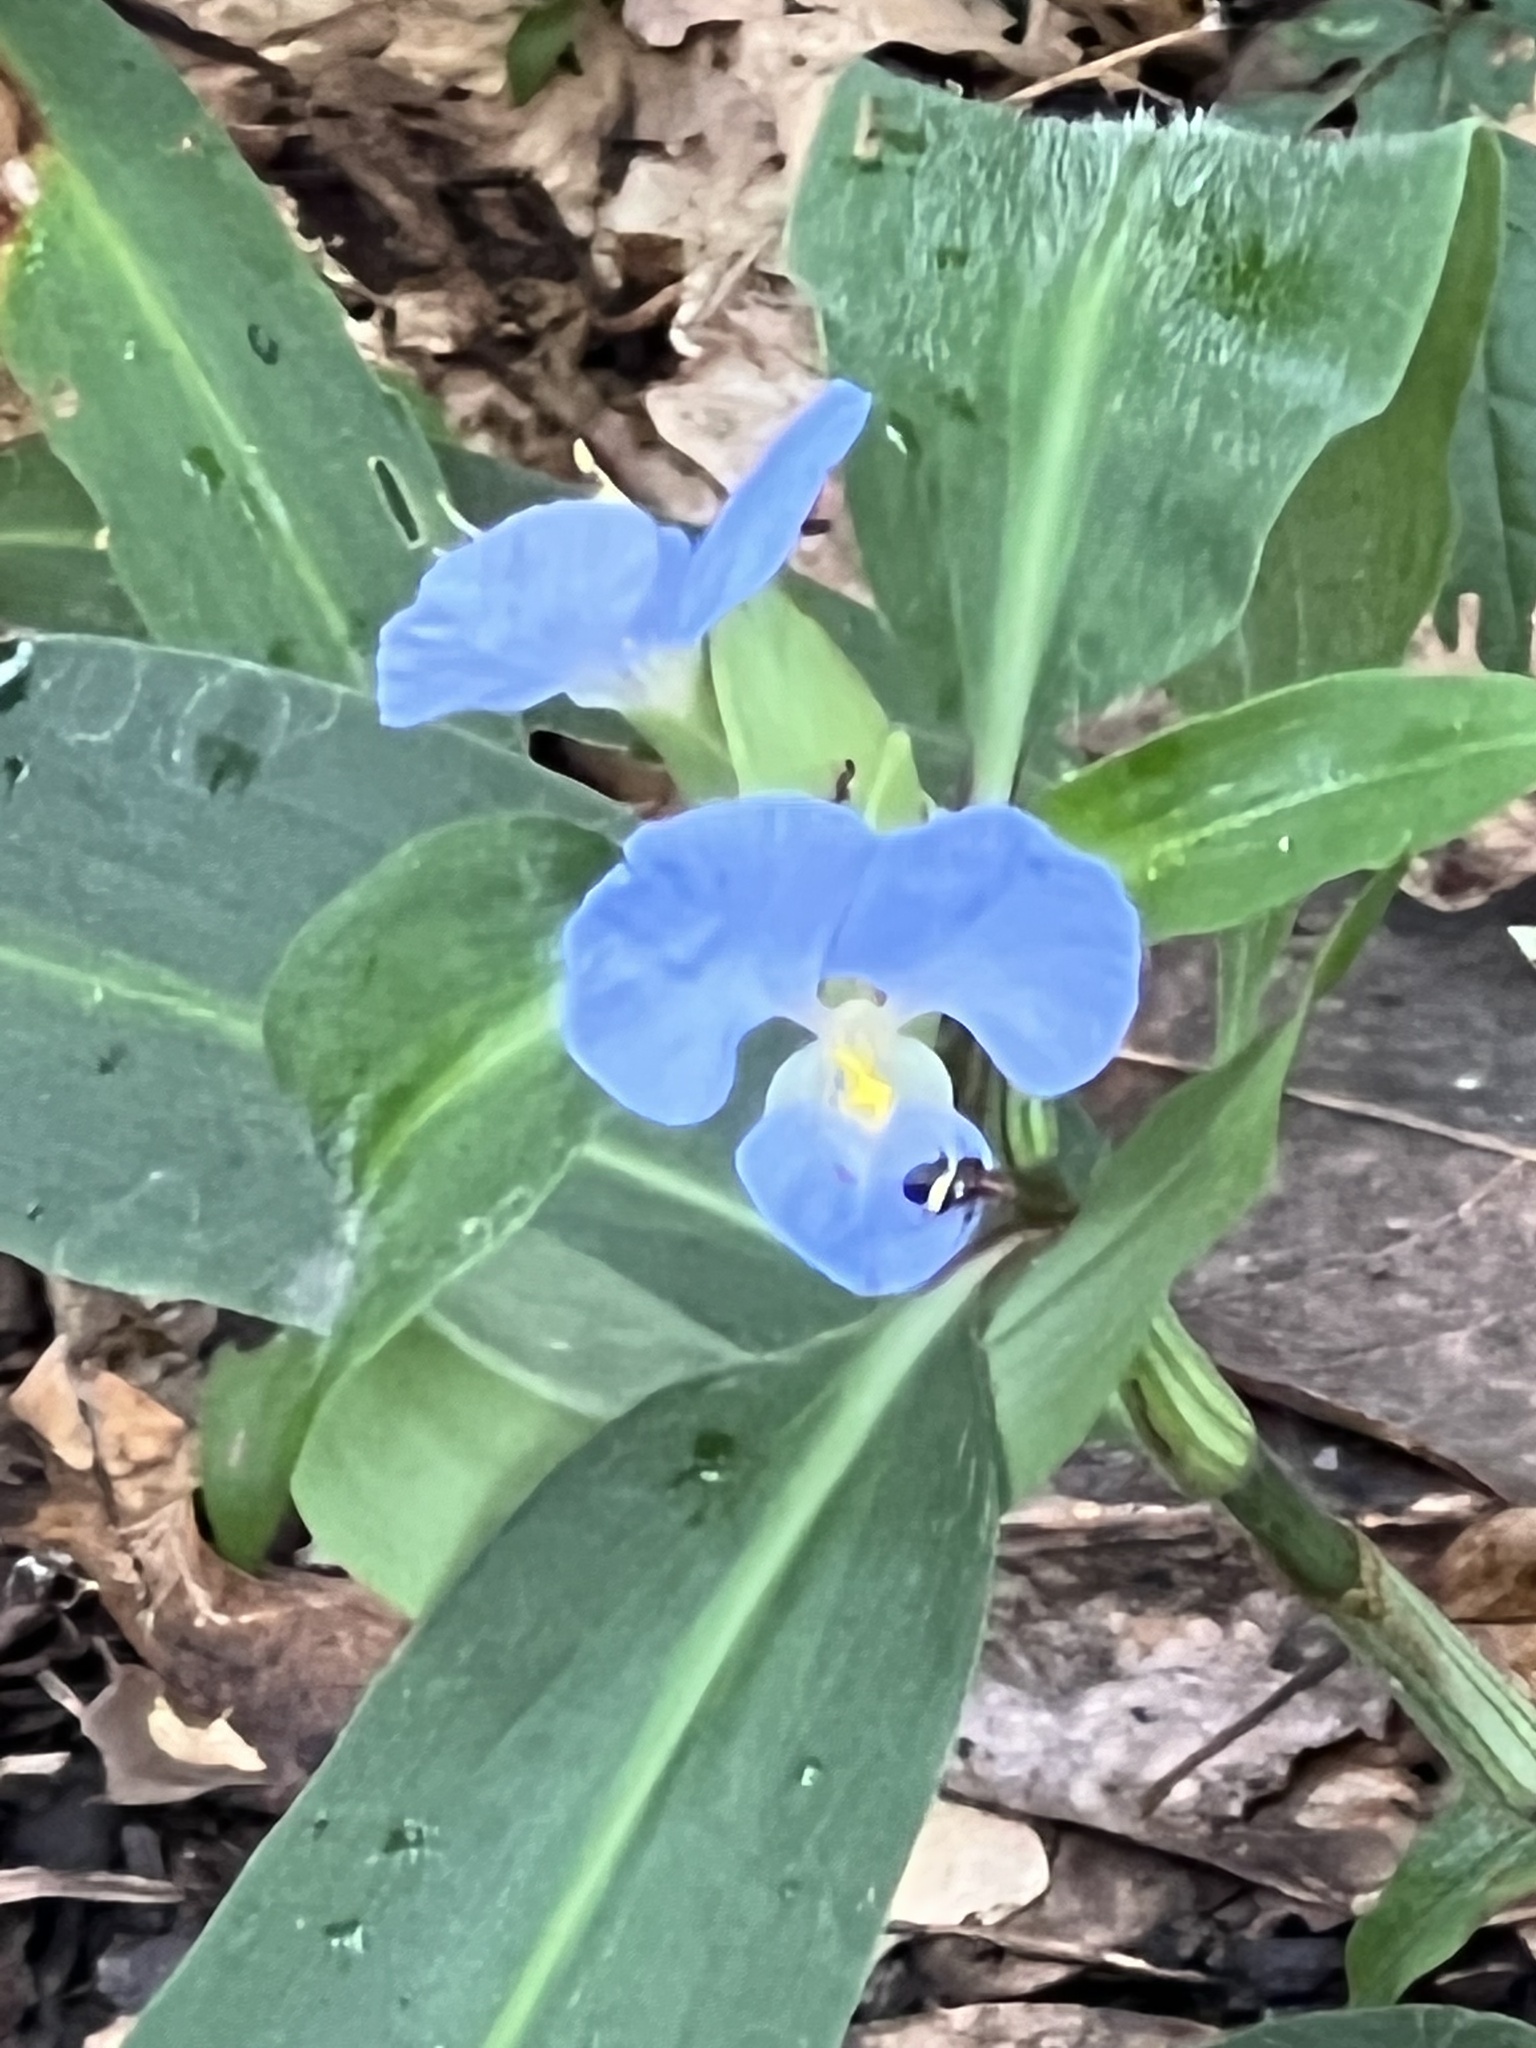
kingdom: Plantae
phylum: Tracheophyta
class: Liliopsida
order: Commelinales
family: Commelinaceae
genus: Commelina
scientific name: Commelina virginica
